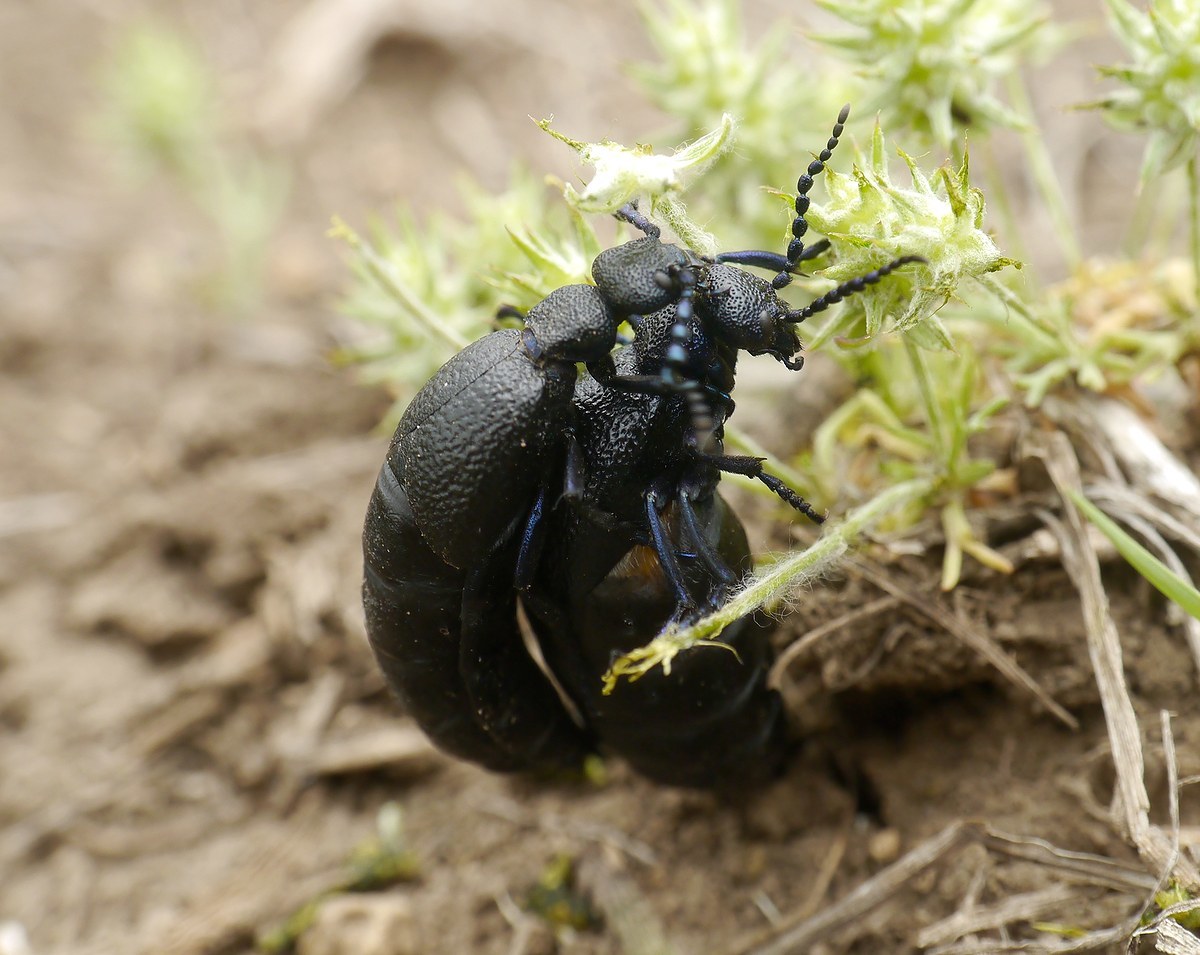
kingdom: Animalia
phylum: Arthropoda
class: Insecta
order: Coleoptera
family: Meloidae
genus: Meloe
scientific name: Meloe proscarabaeus
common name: Black oil-beetle
